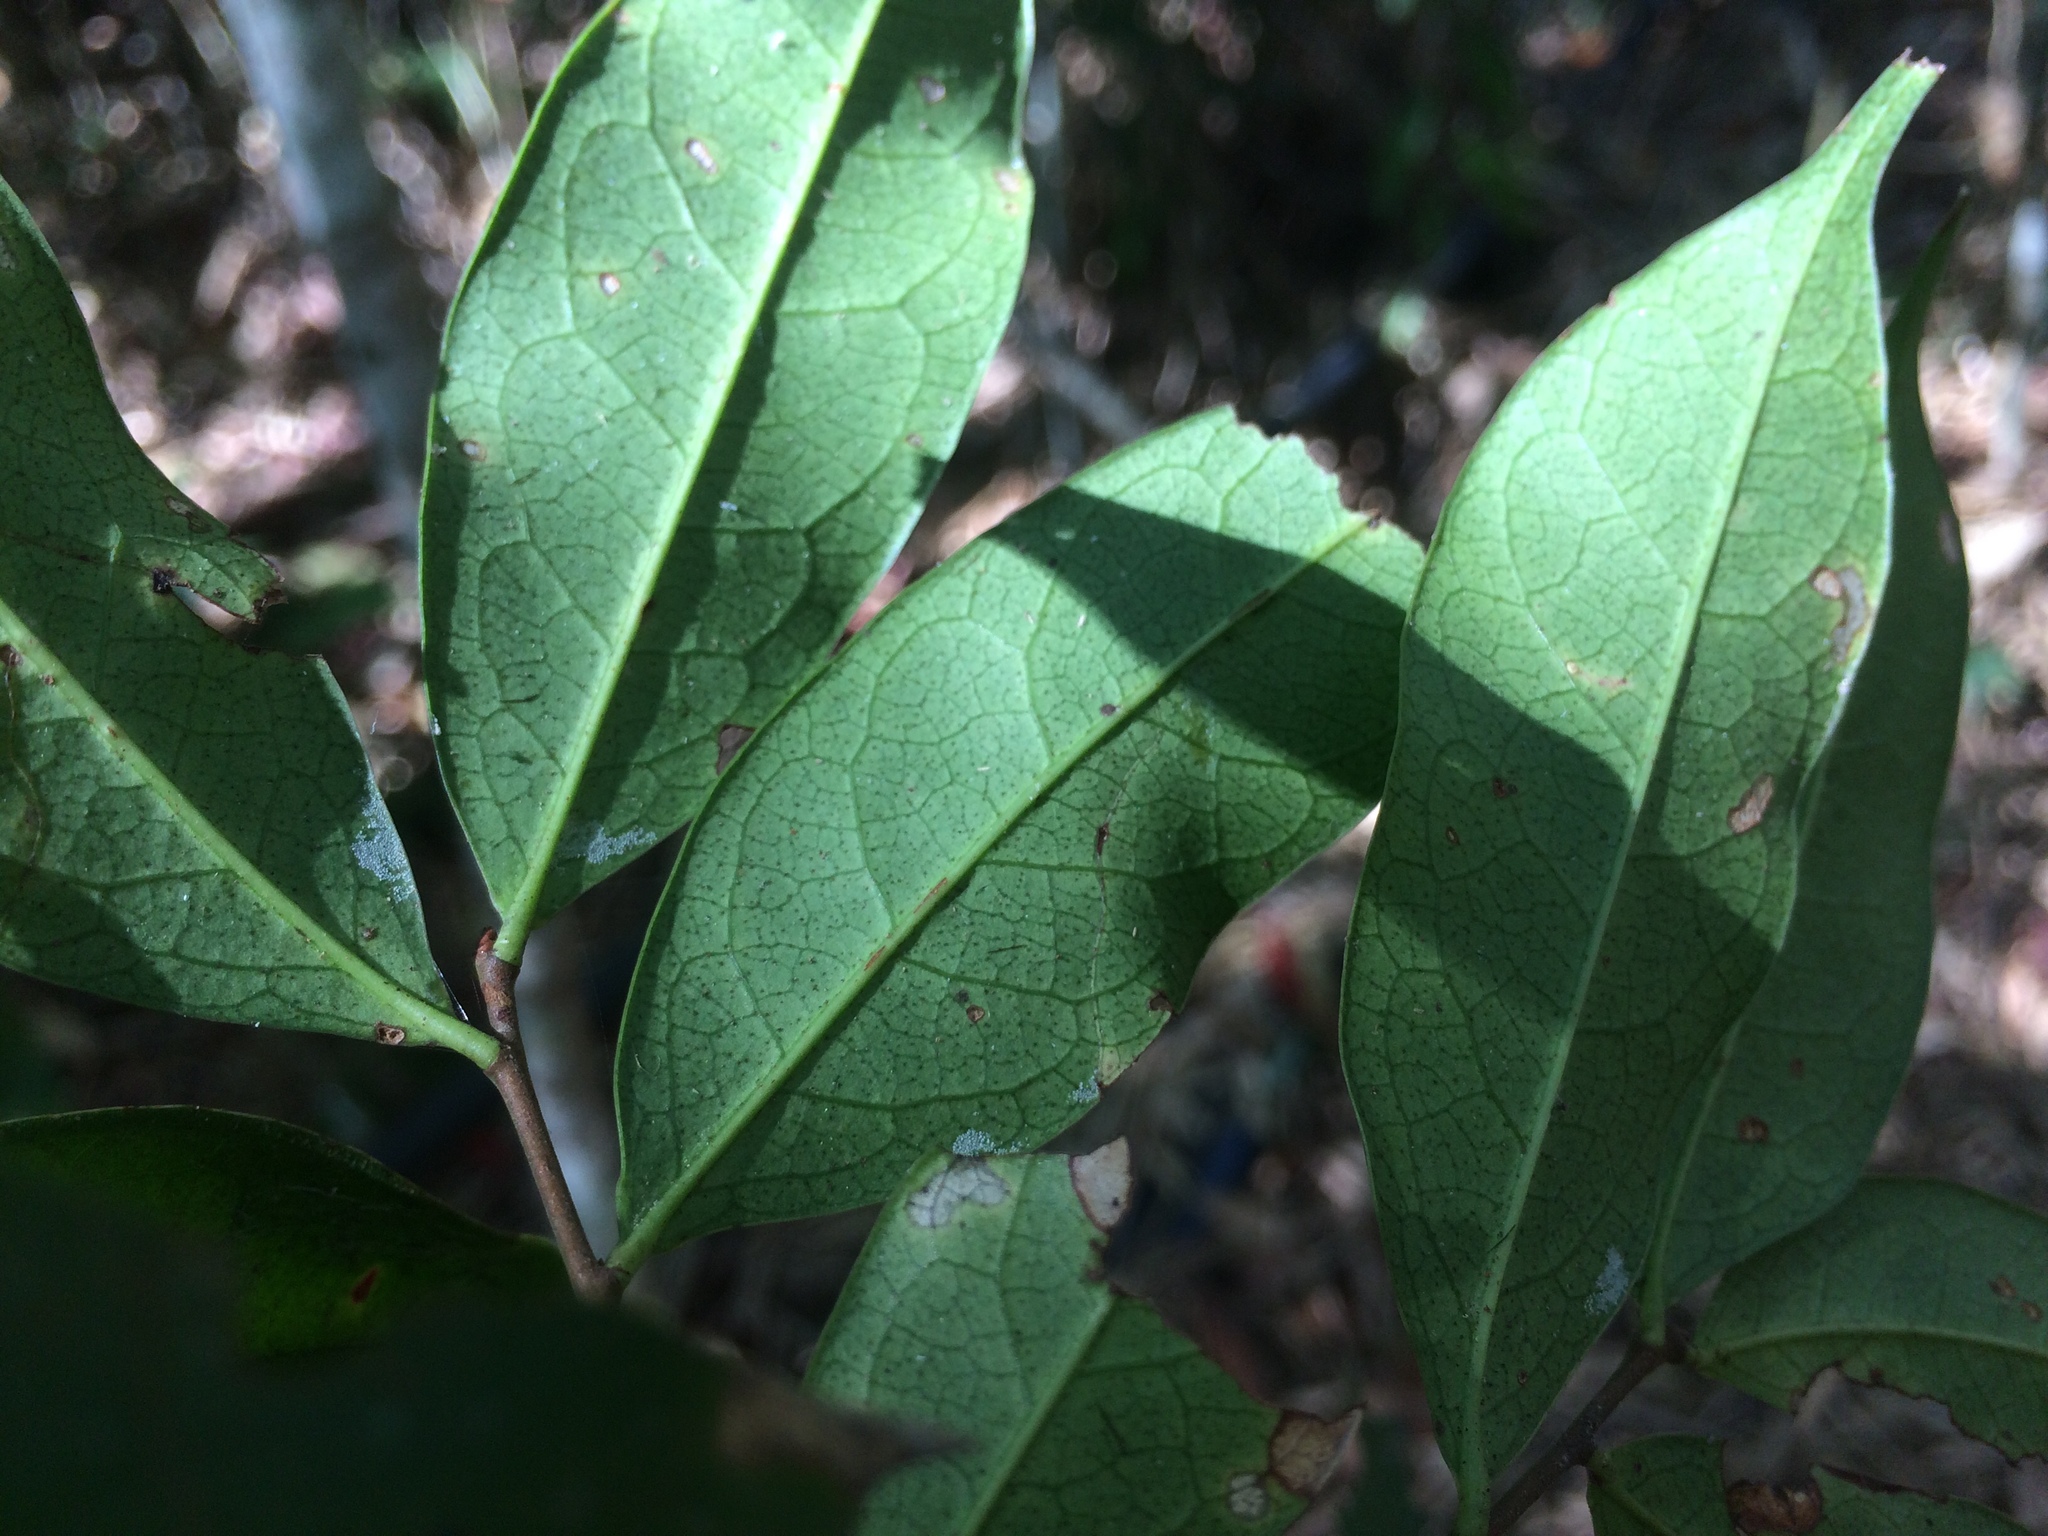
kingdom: Plantae
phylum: Tracheophyta
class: Magnoliopsida
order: Rosales
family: Rosaceae
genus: Prunus
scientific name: Prunus phaeosticta
